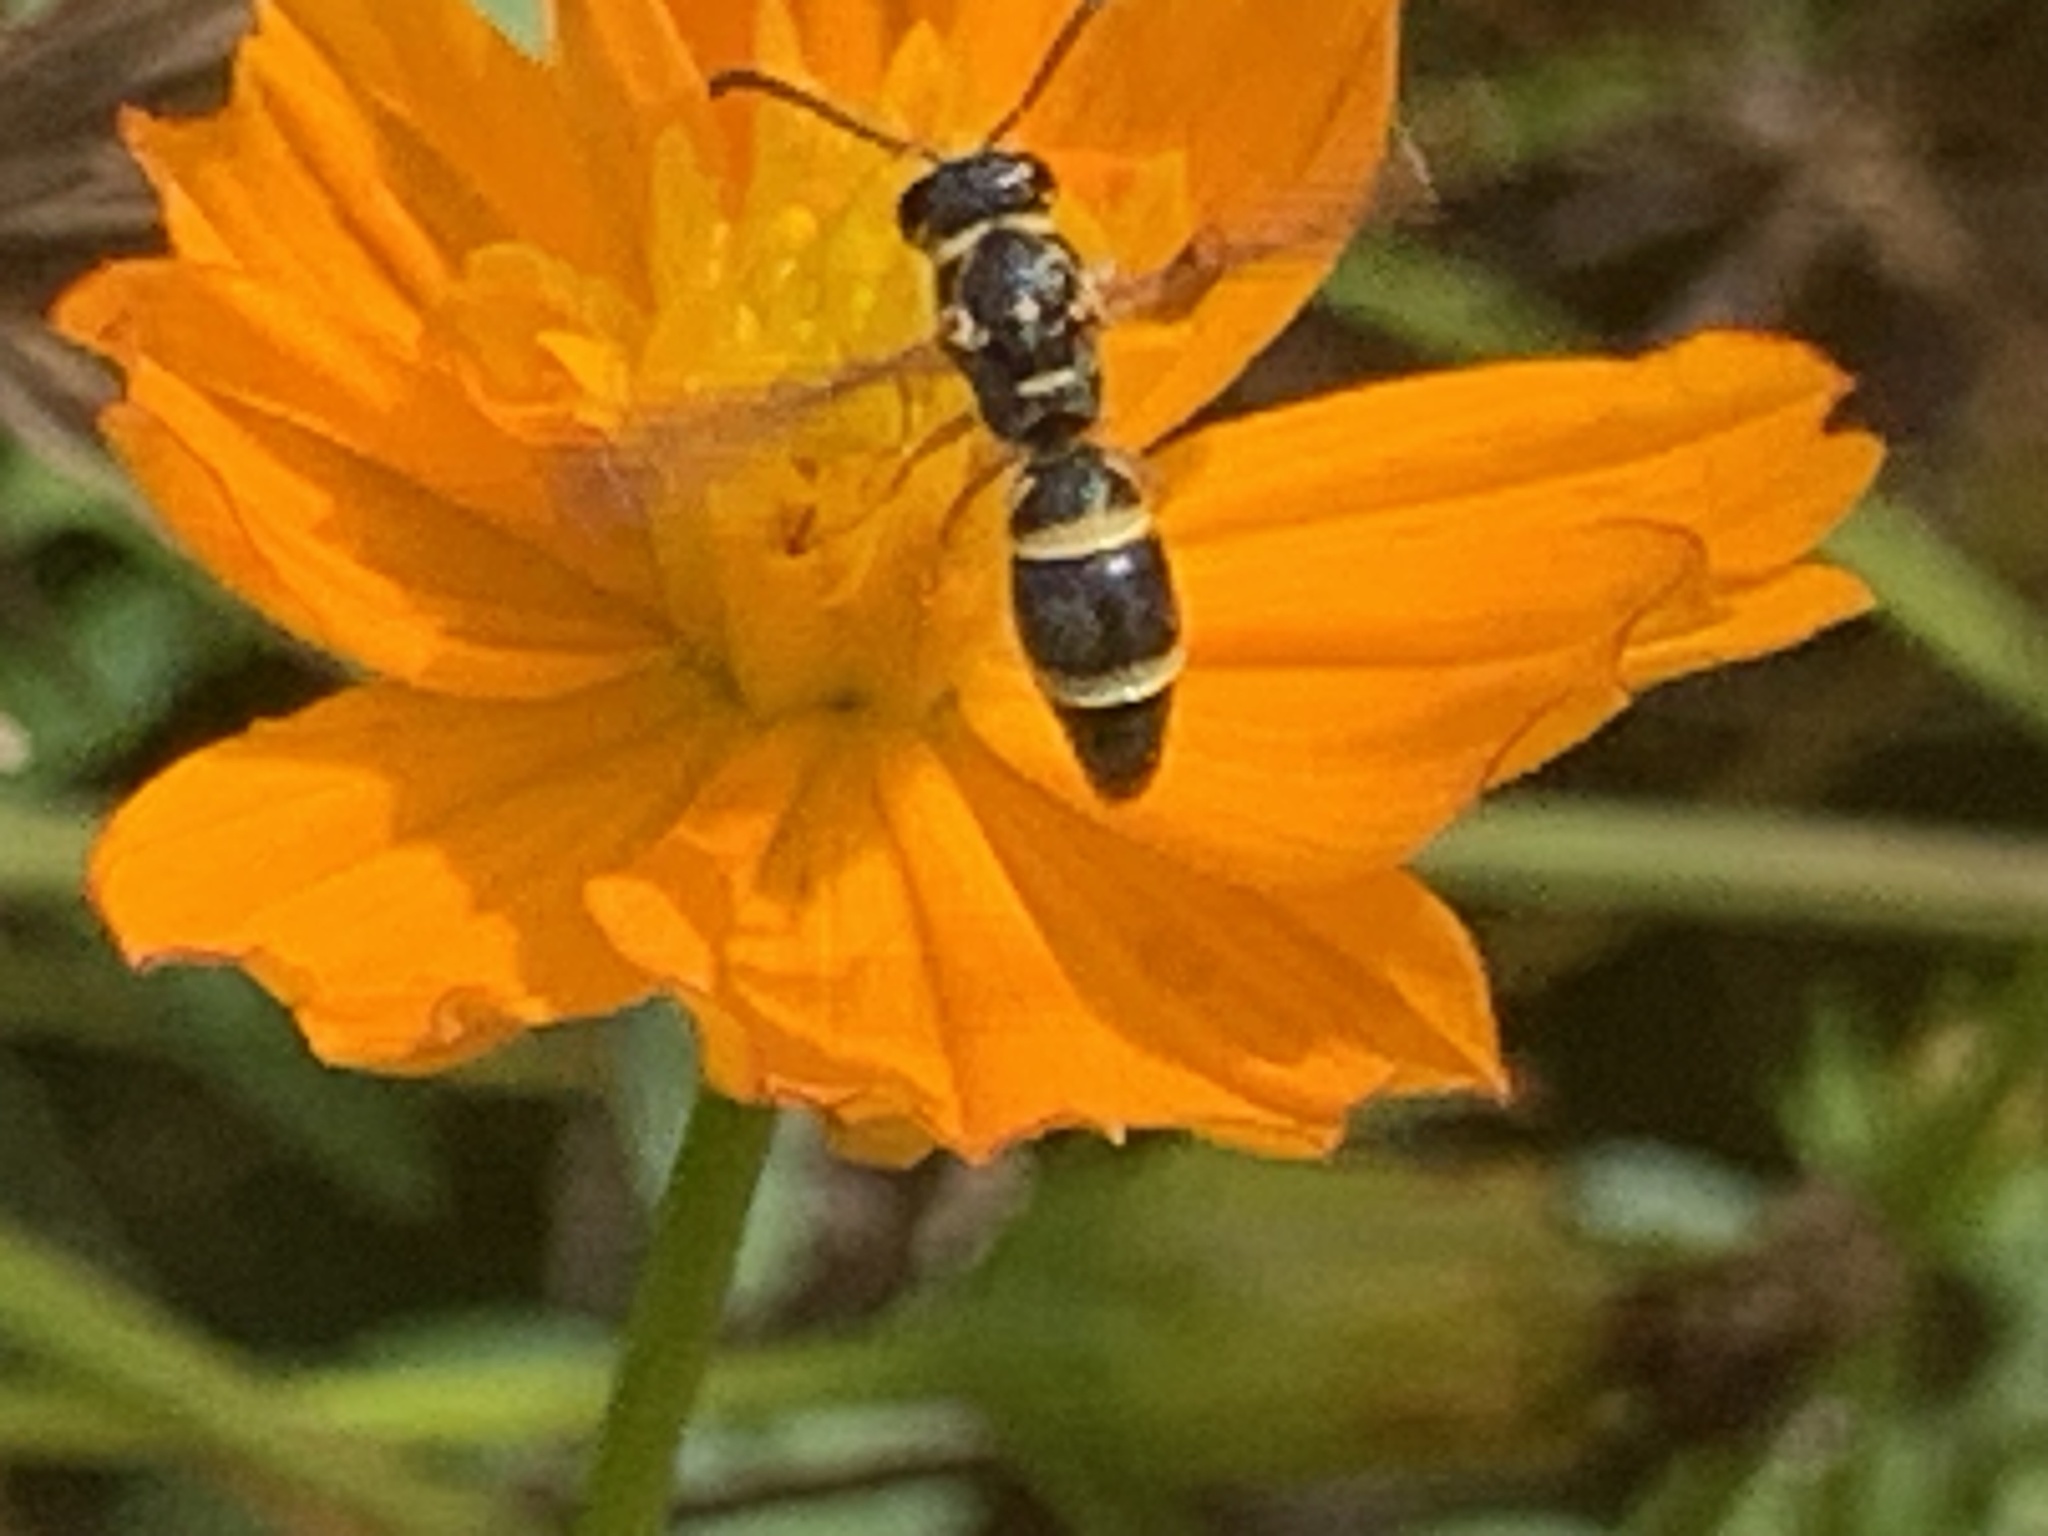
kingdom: Animalia
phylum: Arthropoda
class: Insecta
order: Hymenoptera
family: Eumenidae
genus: Parancistrocerus
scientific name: Parancistrocerus fulvipes
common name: Potter wasp
